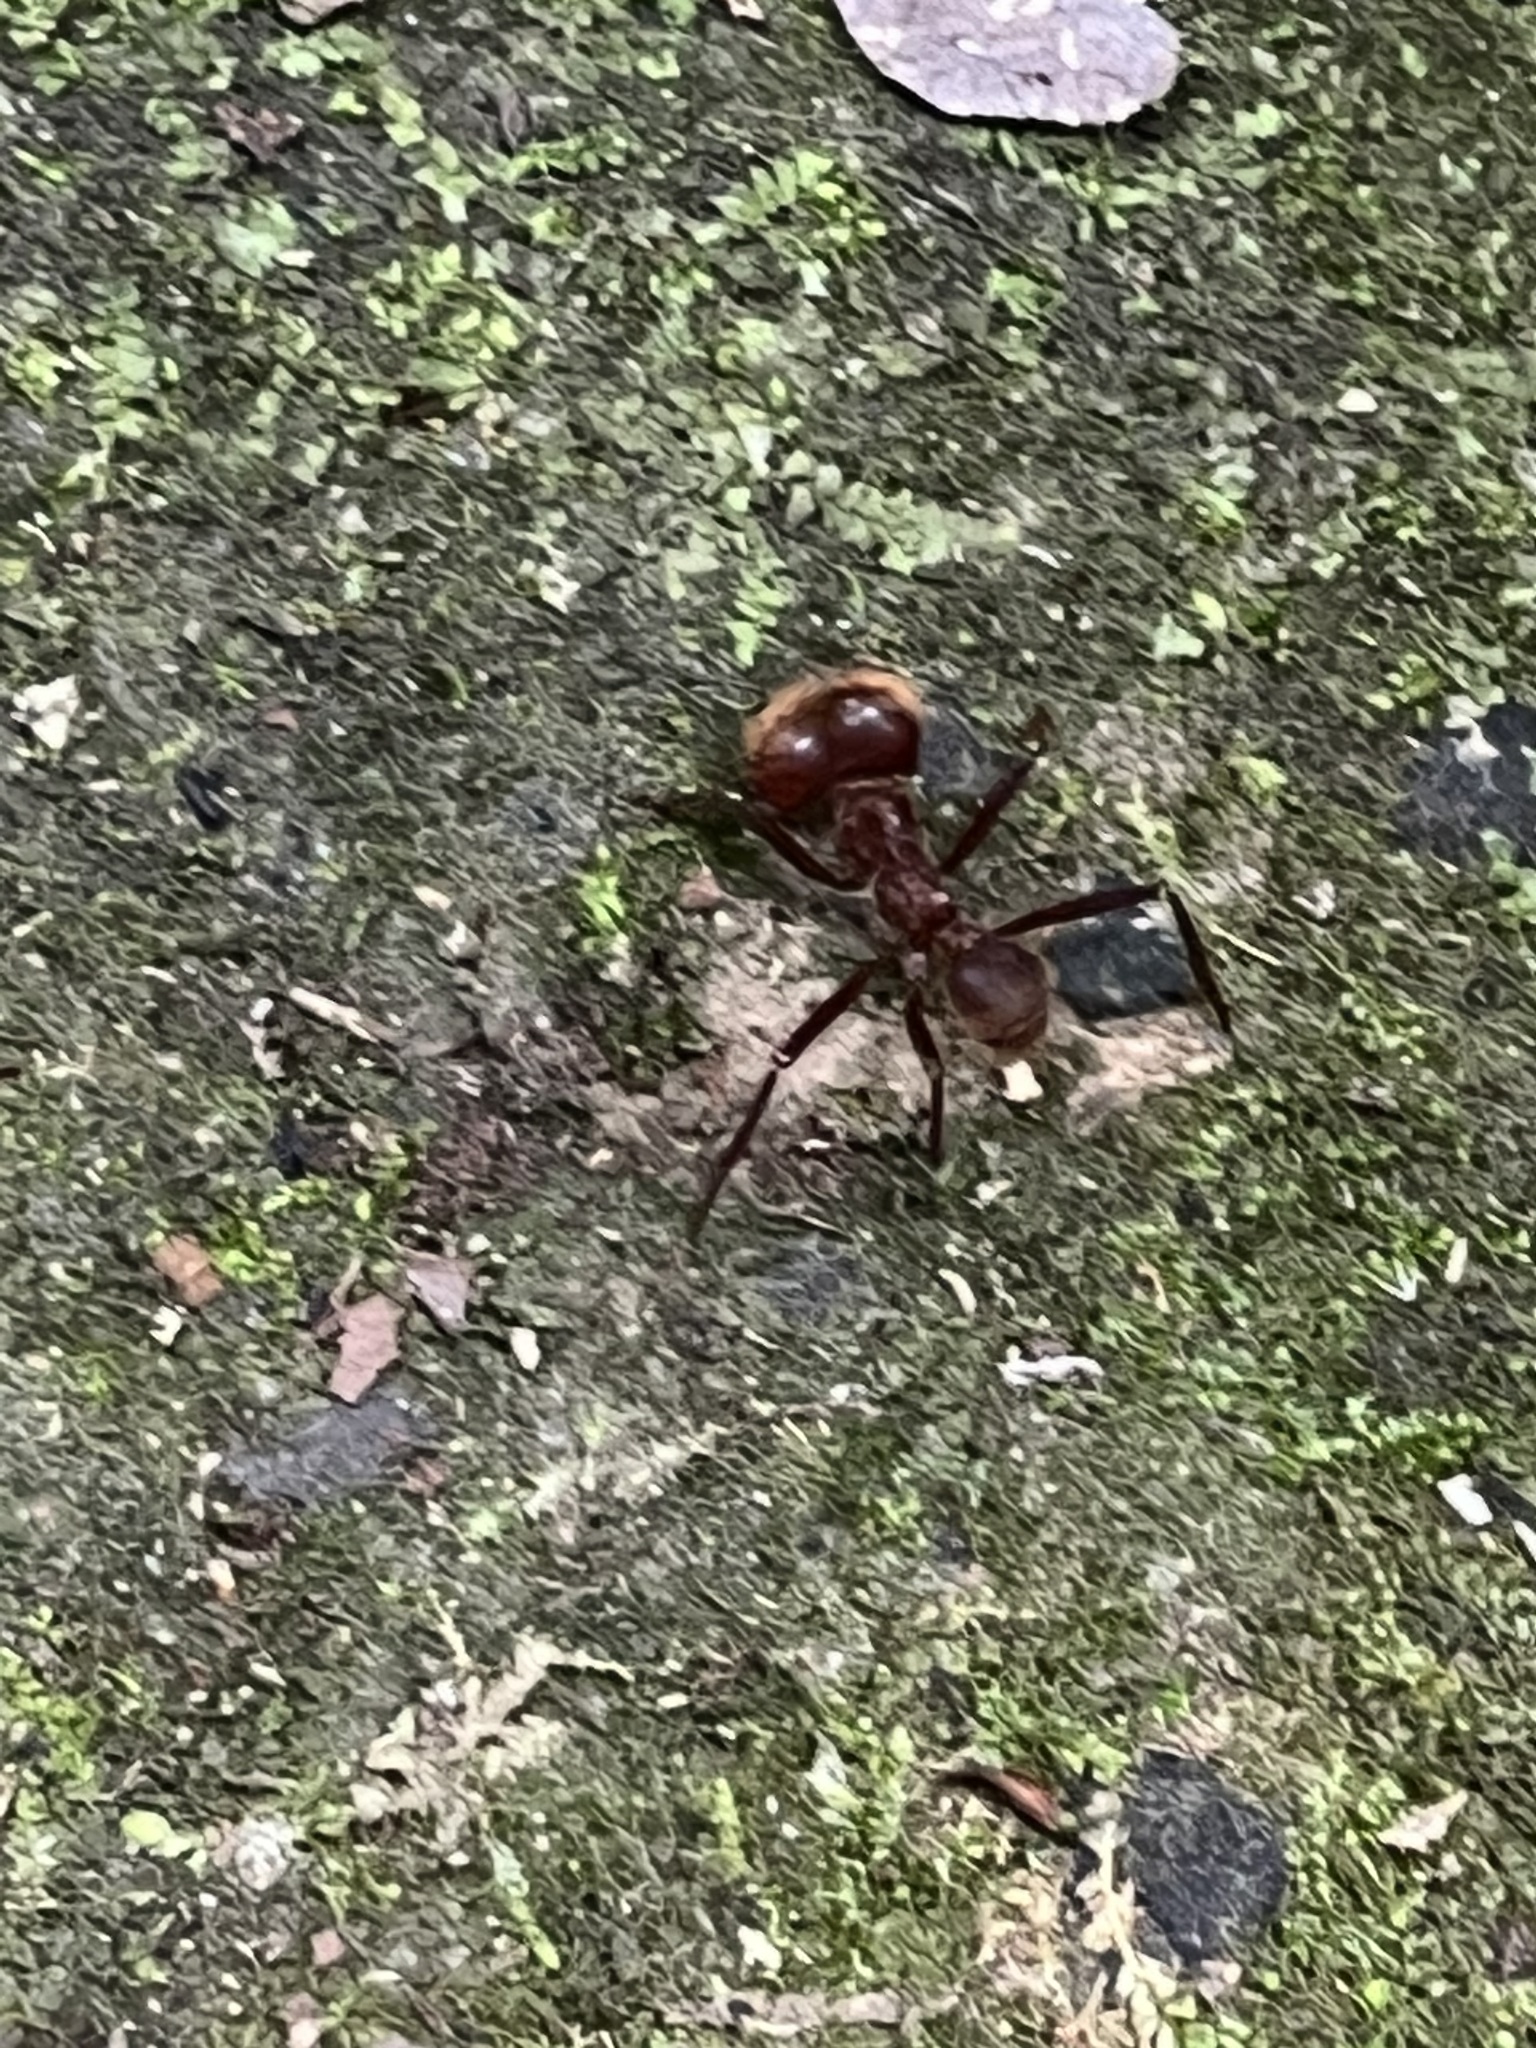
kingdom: Animalia
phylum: Arthropoda
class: Insecta
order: Hymenoptera
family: Formicidae
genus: Atta
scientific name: Atta cephalotes
